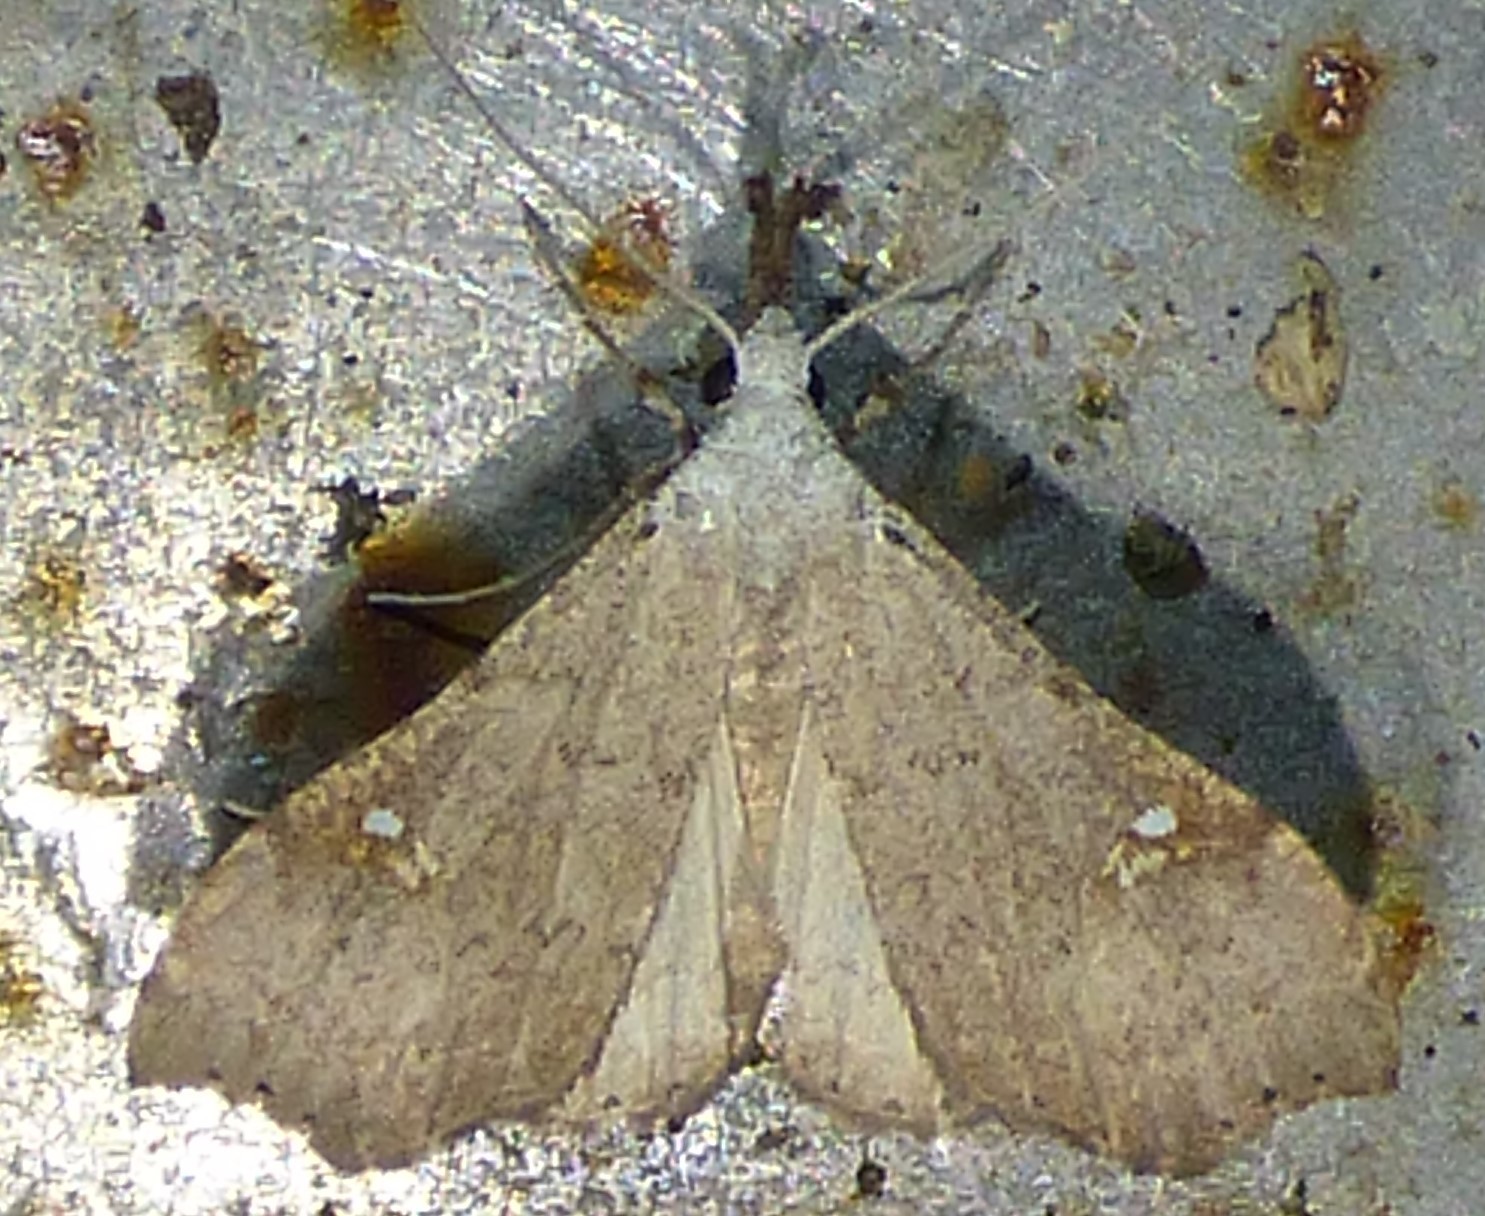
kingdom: Animalia
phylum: Arthropoda
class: Insecta
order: Lepidoptera
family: Erebidae
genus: Redectis
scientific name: Redectis vitrea
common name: White-spotted redectis
